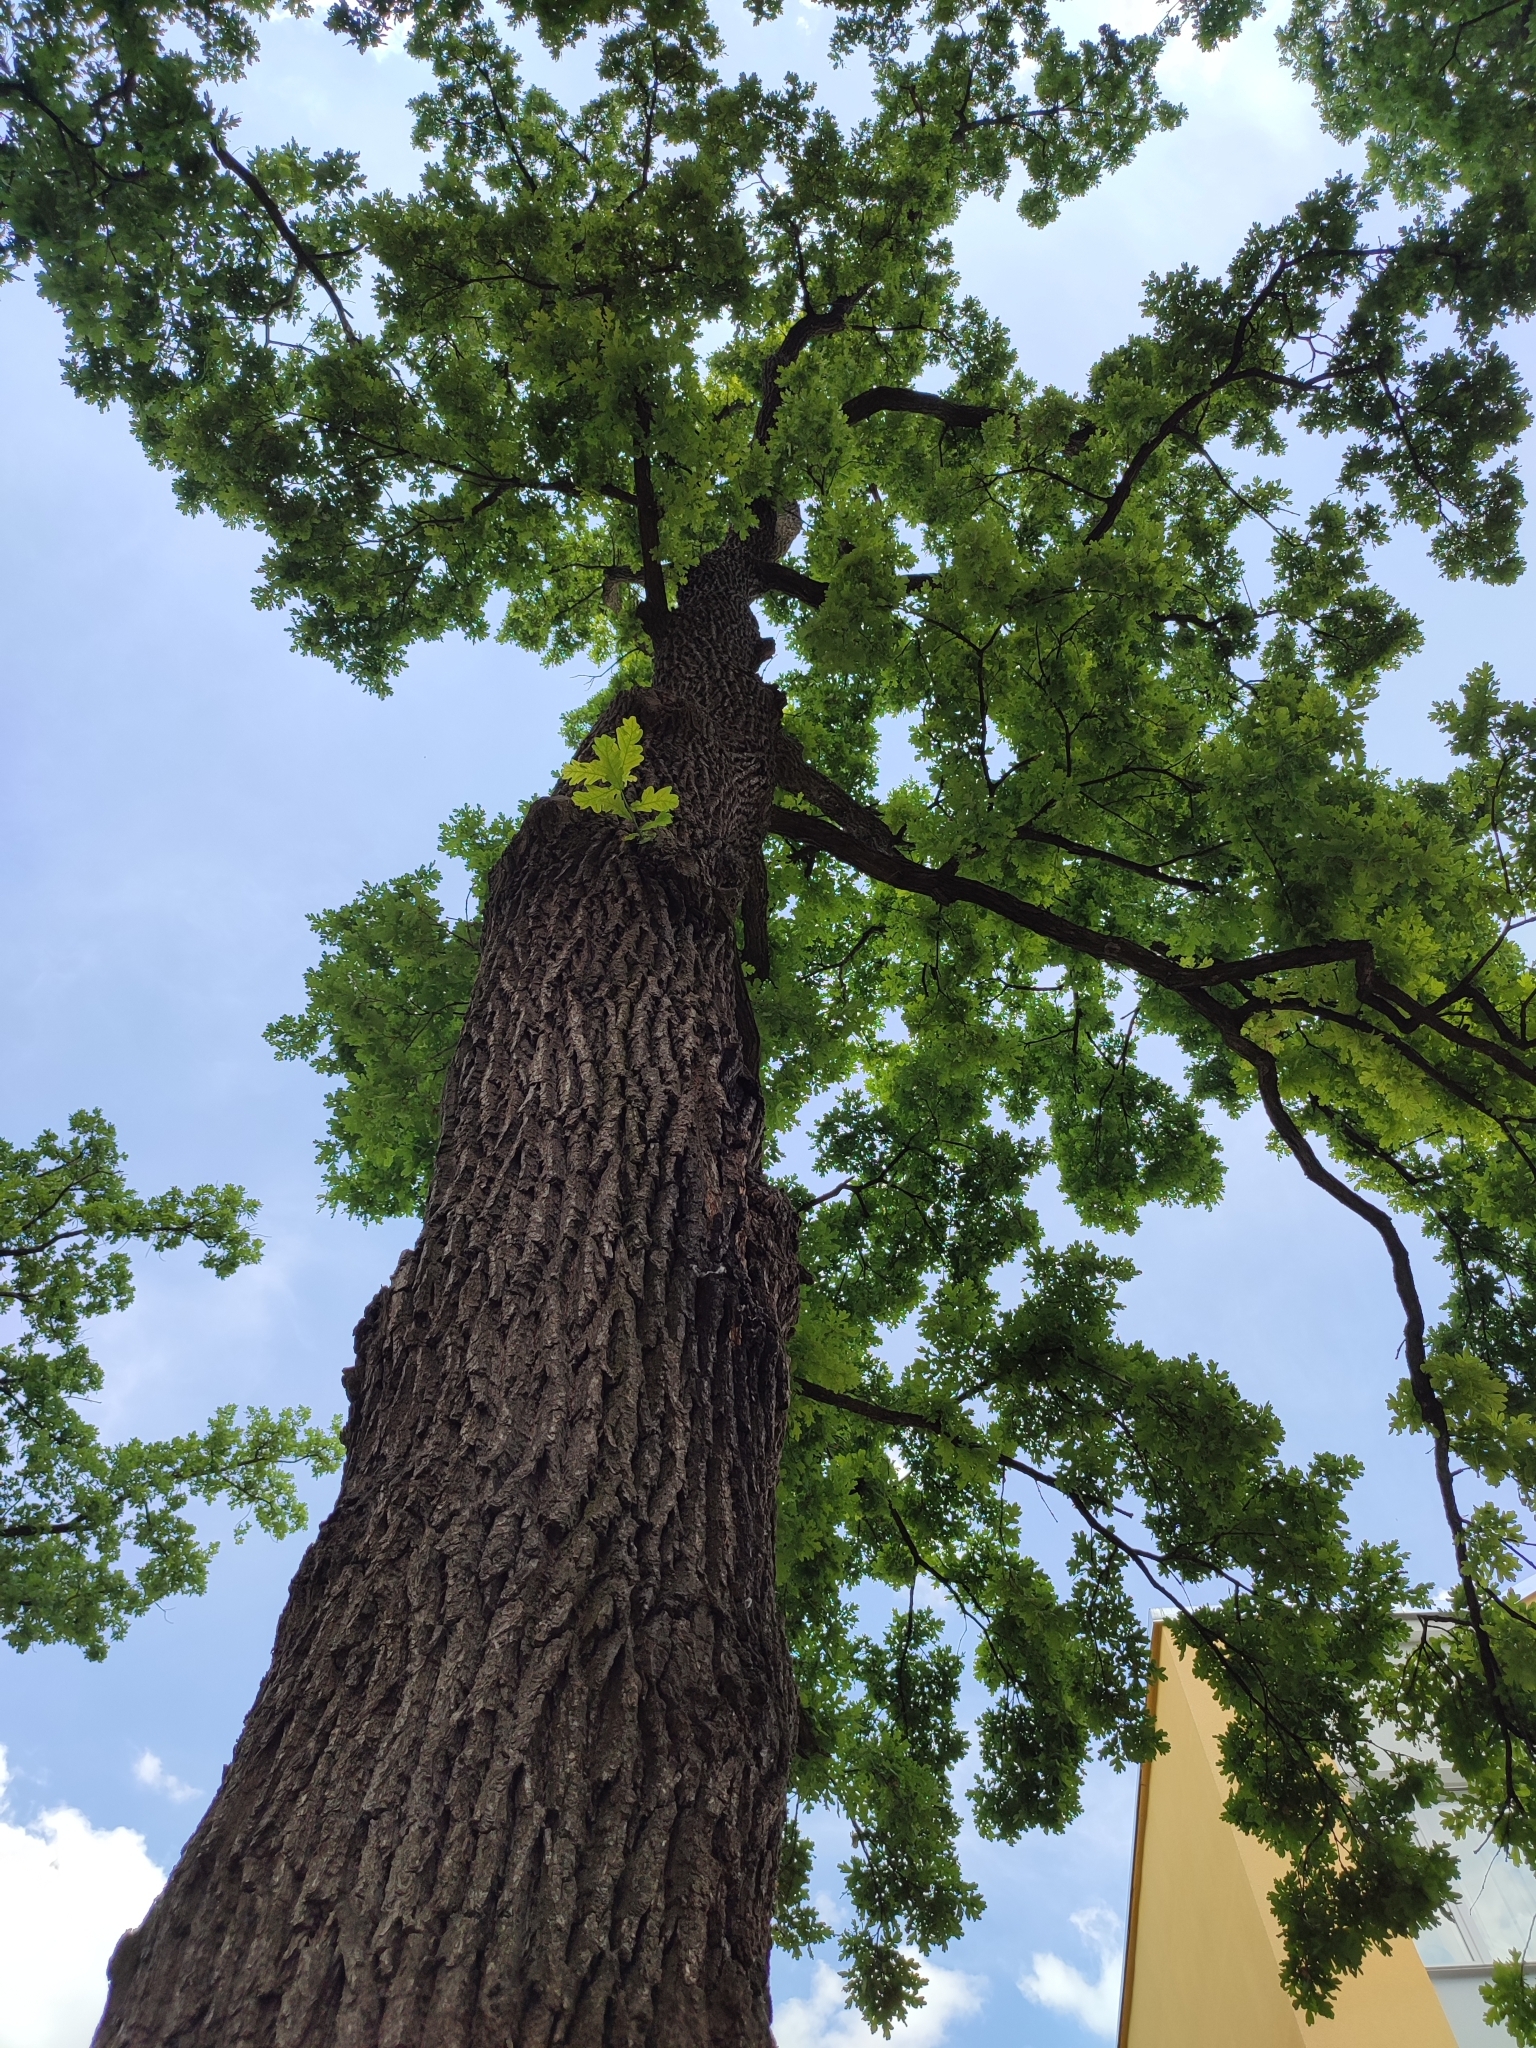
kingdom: Plantae
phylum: Tracheophyta
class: Magnoliopsida
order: Fagales
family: Fagaceae
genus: Quercus
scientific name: Quercus robur
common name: Pedunculate oak
